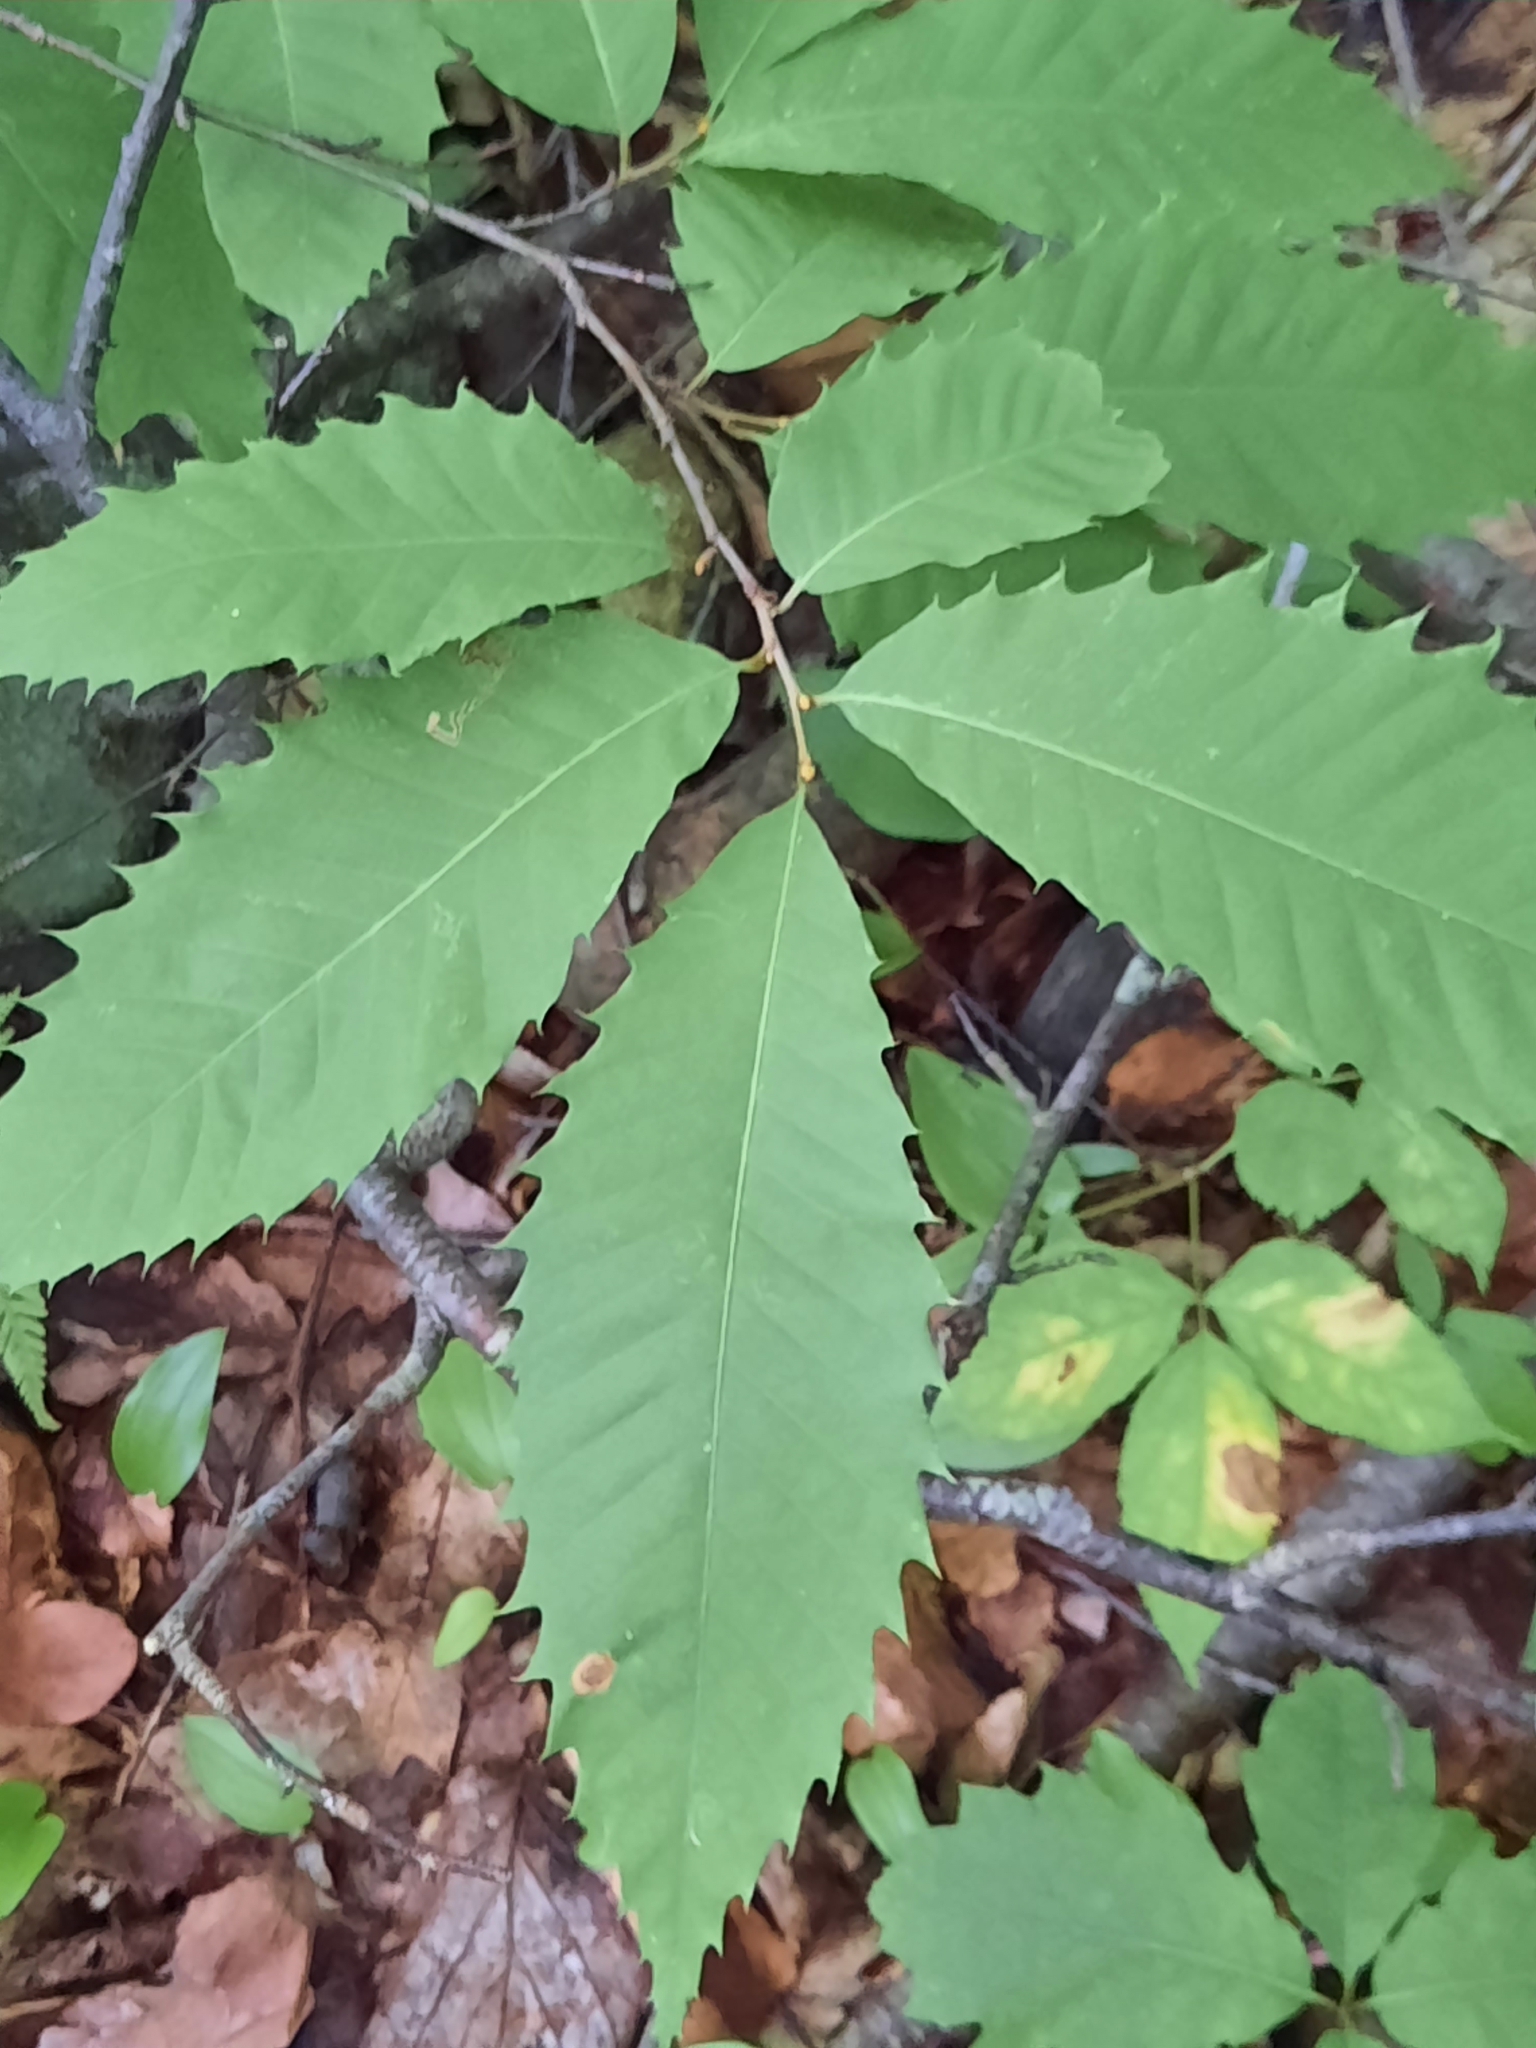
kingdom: Plantae
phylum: Tracheophyta
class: Magnoliopsida
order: Fagales
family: Fagaceae
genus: Castanea
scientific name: Castanea dentata
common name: American chestnut
